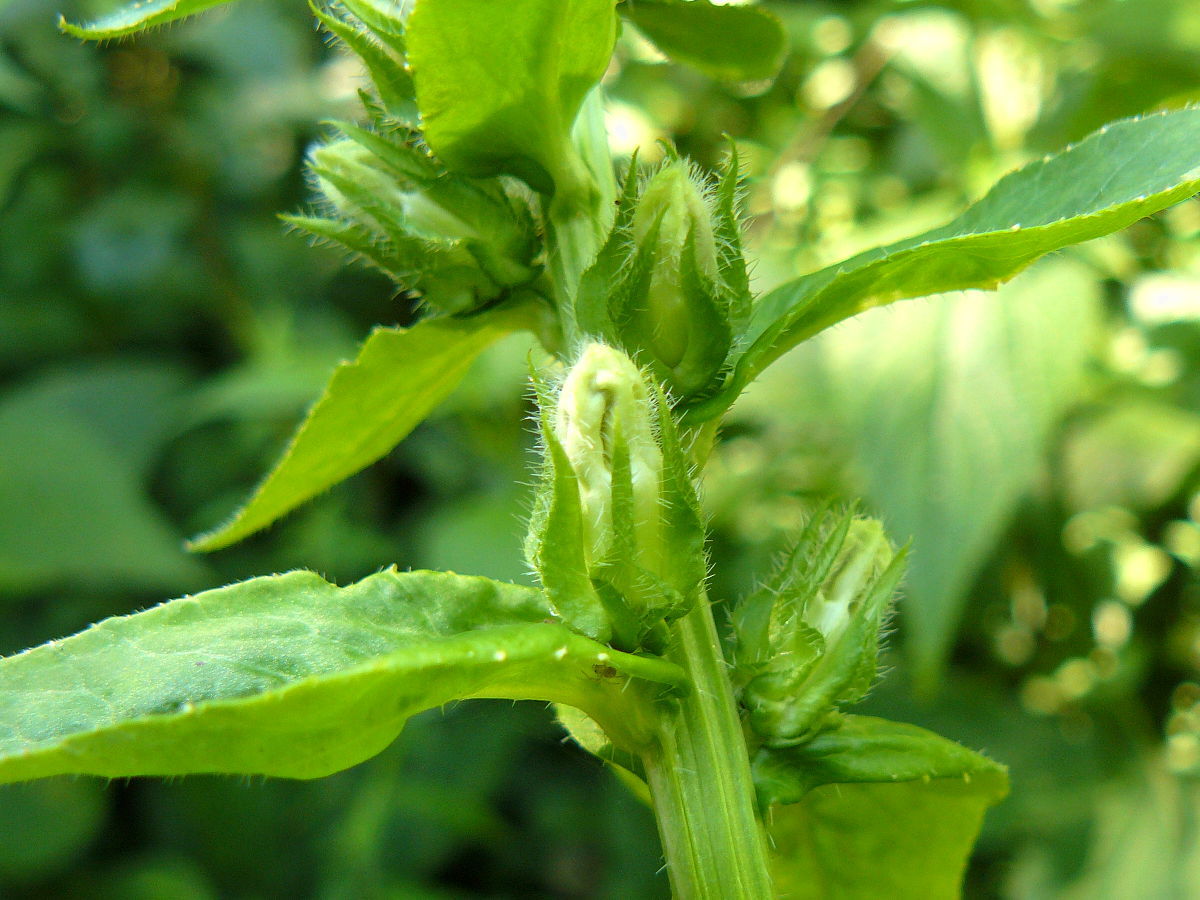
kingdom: Plantae
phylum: Tracheophyta
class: Magnoliopsida
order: Asterales
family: Campanulaceae
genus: Lobelia
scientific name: Lobelia siphilitica
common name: Great lobelia
